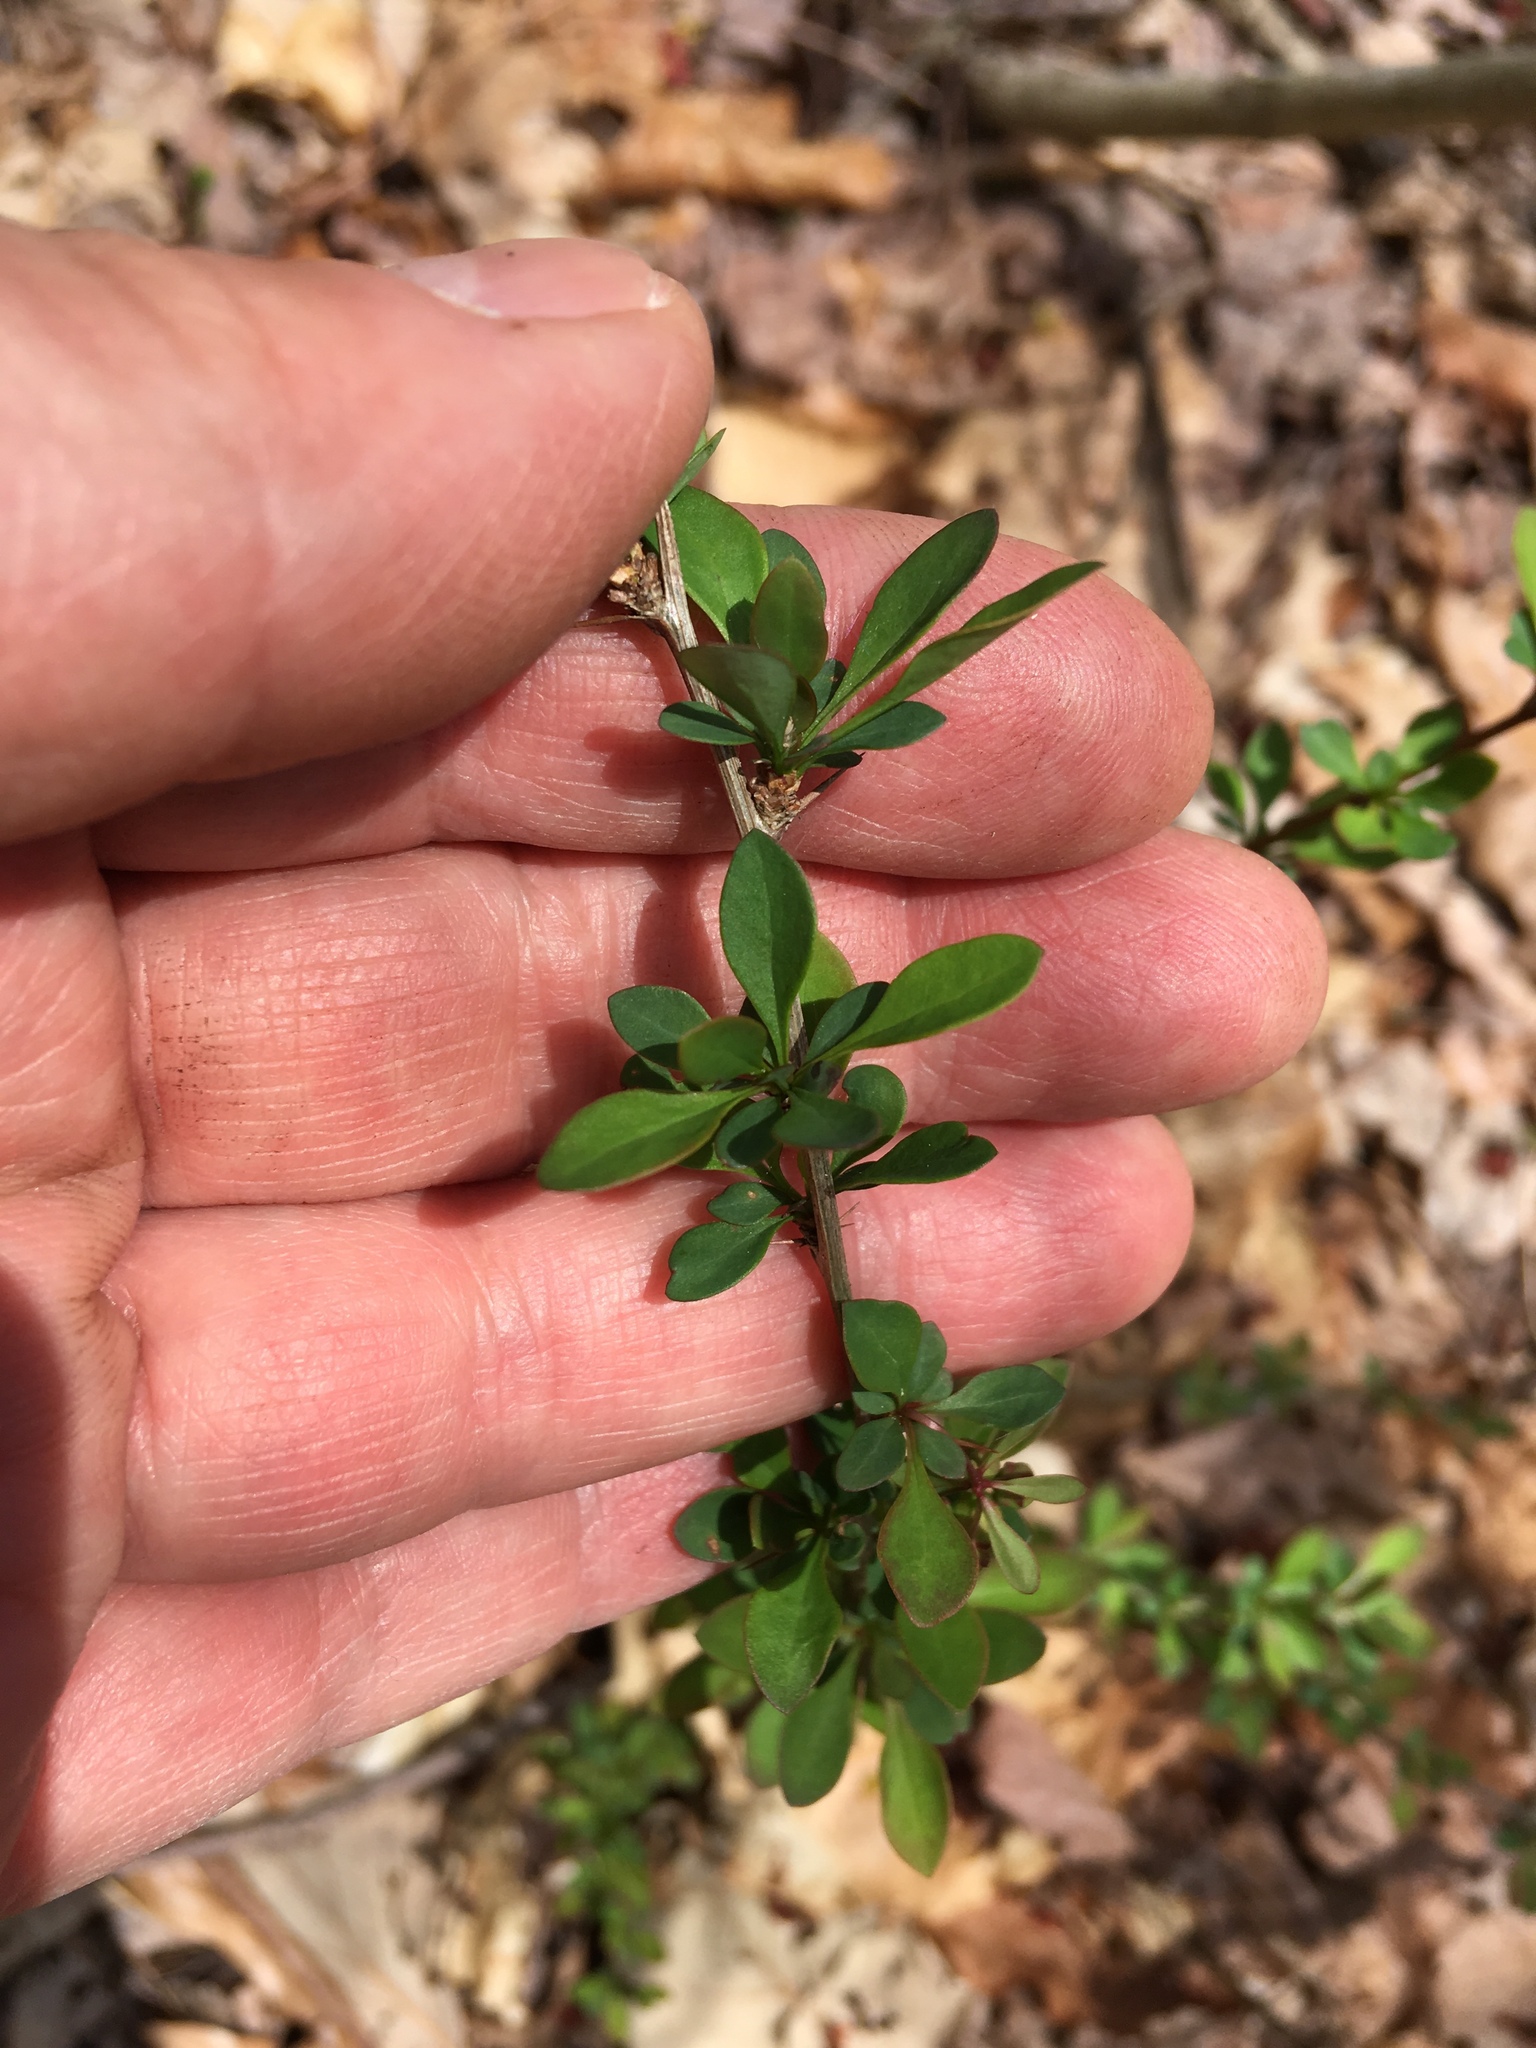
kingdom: Plantae
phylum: Tracheophyta
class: Magnoliopsida
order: Ranunculales
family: Berberidaceae
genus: Berberis
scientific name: Berberis thunbergii
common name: Japanese barberry
